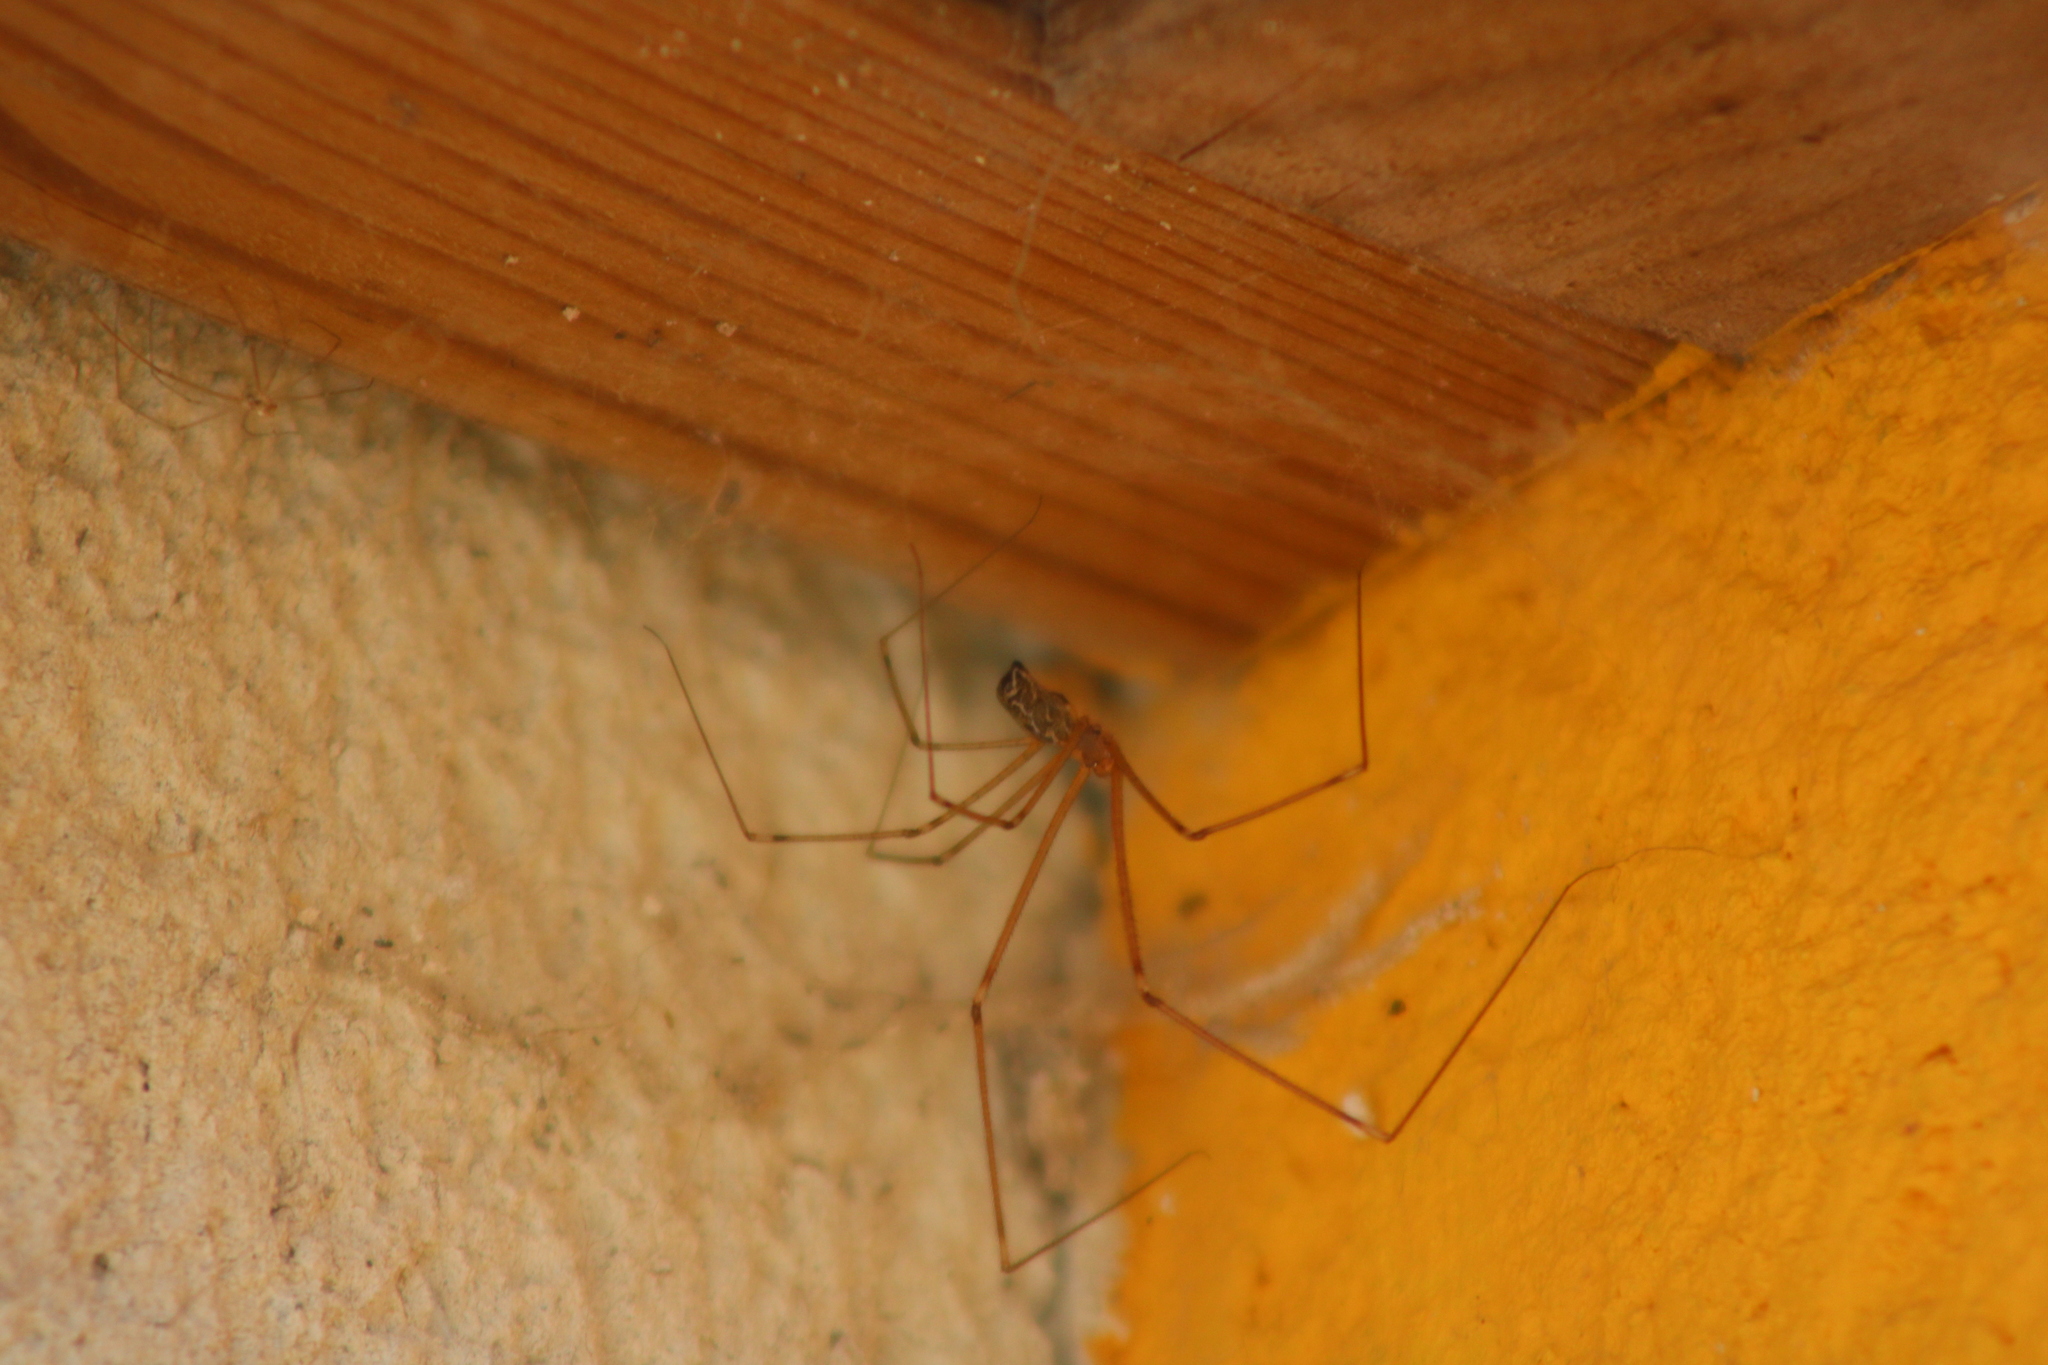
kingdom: Animalia
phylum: Arthropoda
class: Arachnida
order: Araneae
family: Pholcidae
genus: Holocnemus
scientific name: Holocnemus pluchei
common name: Marbled cellar spider
